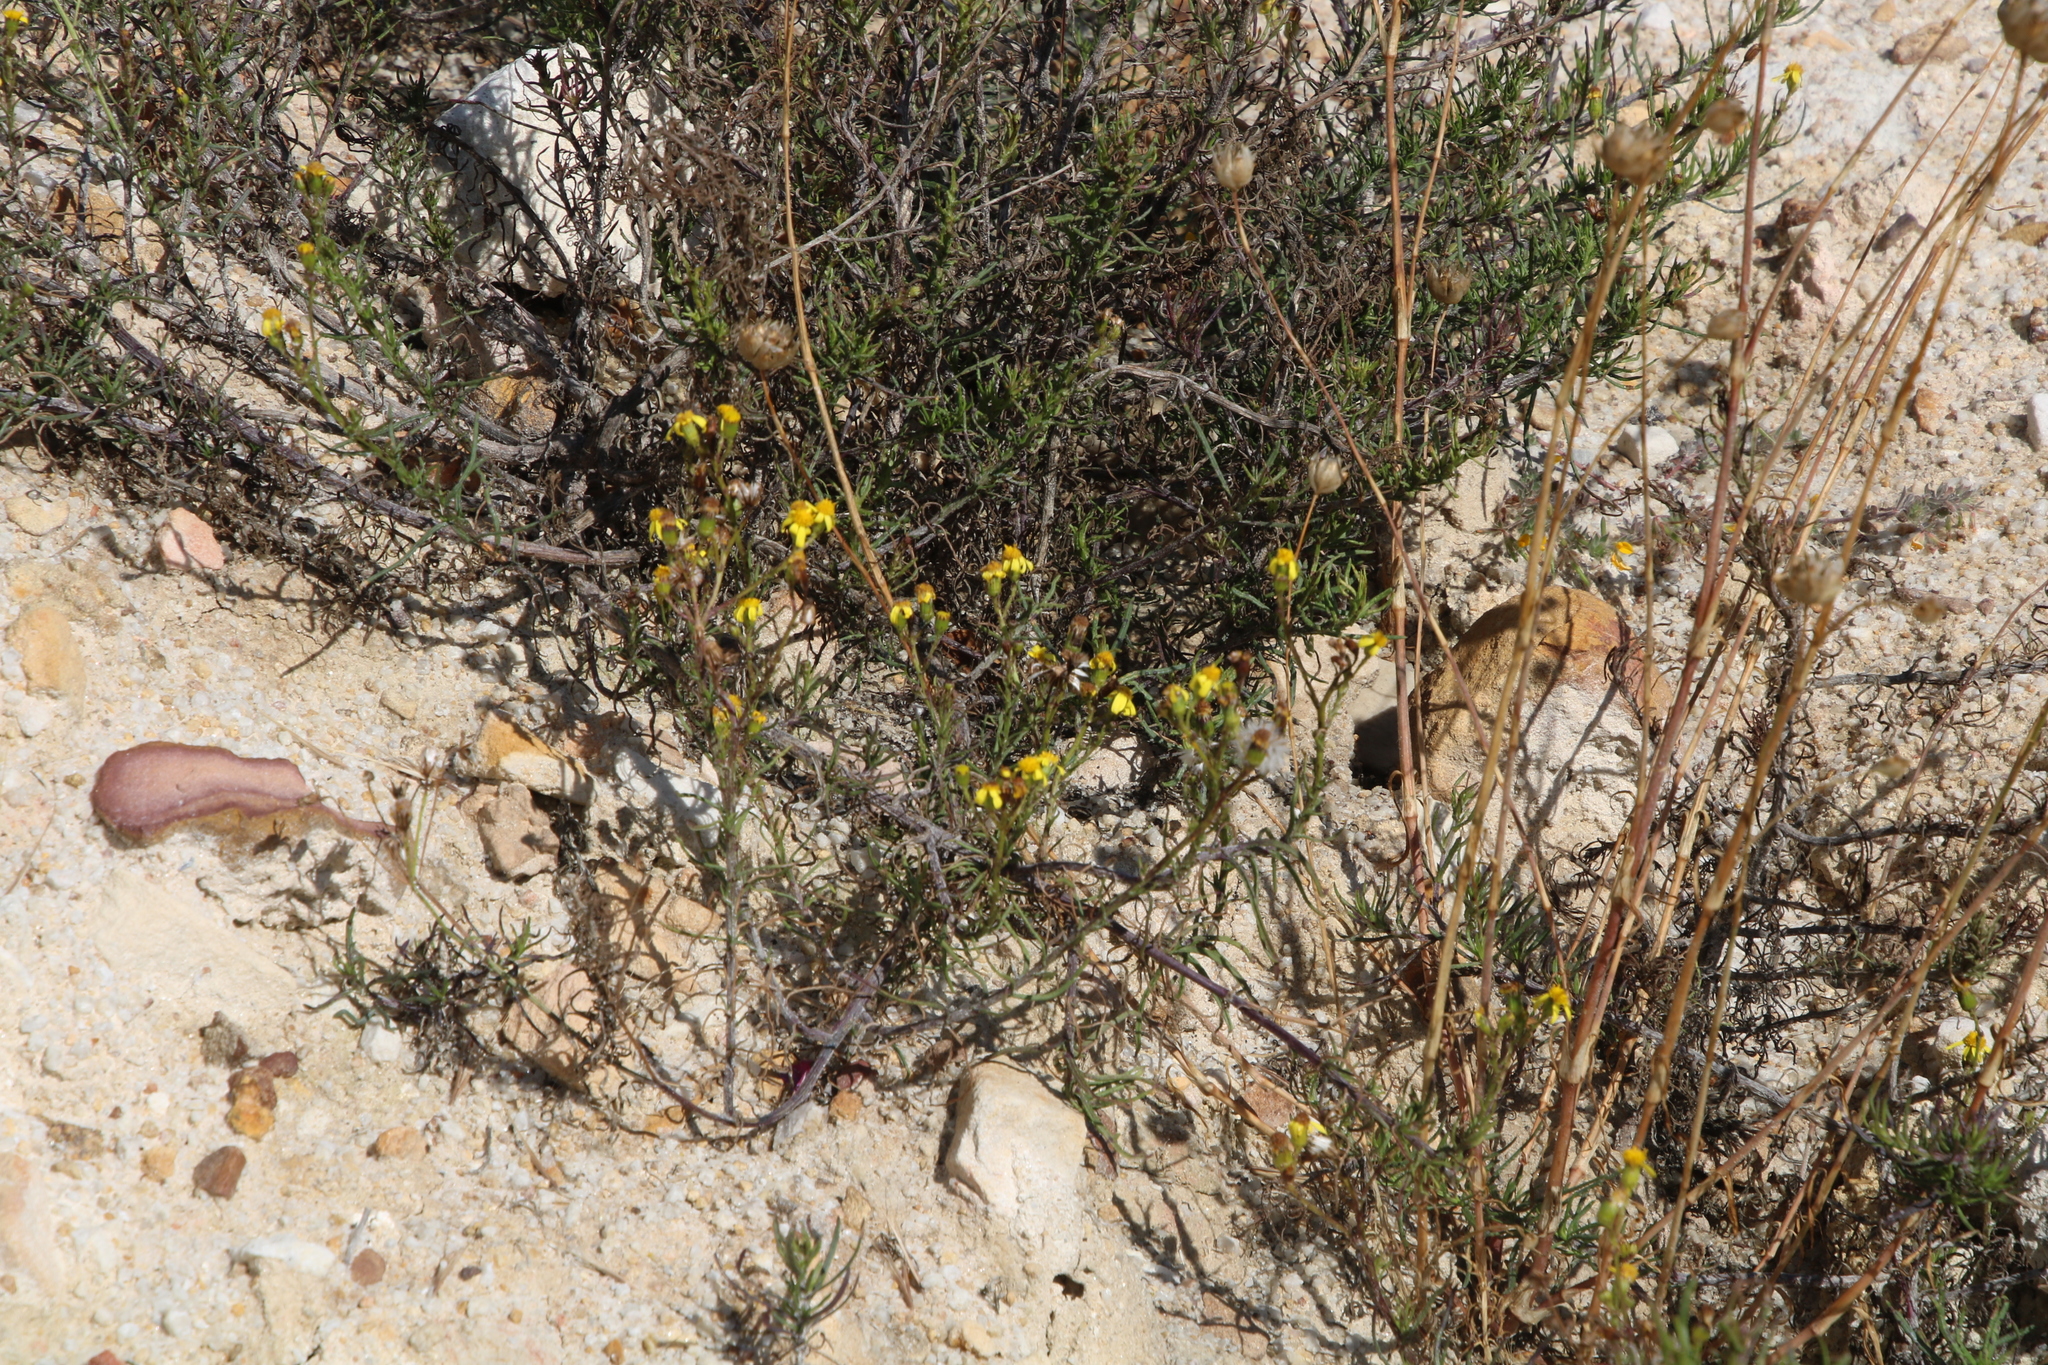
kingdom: Plantae
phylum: Tracheophyta
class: Magnoliopsida
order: Asterales
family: Asteraceae
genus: Senecio
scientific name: Senecio burchellii
